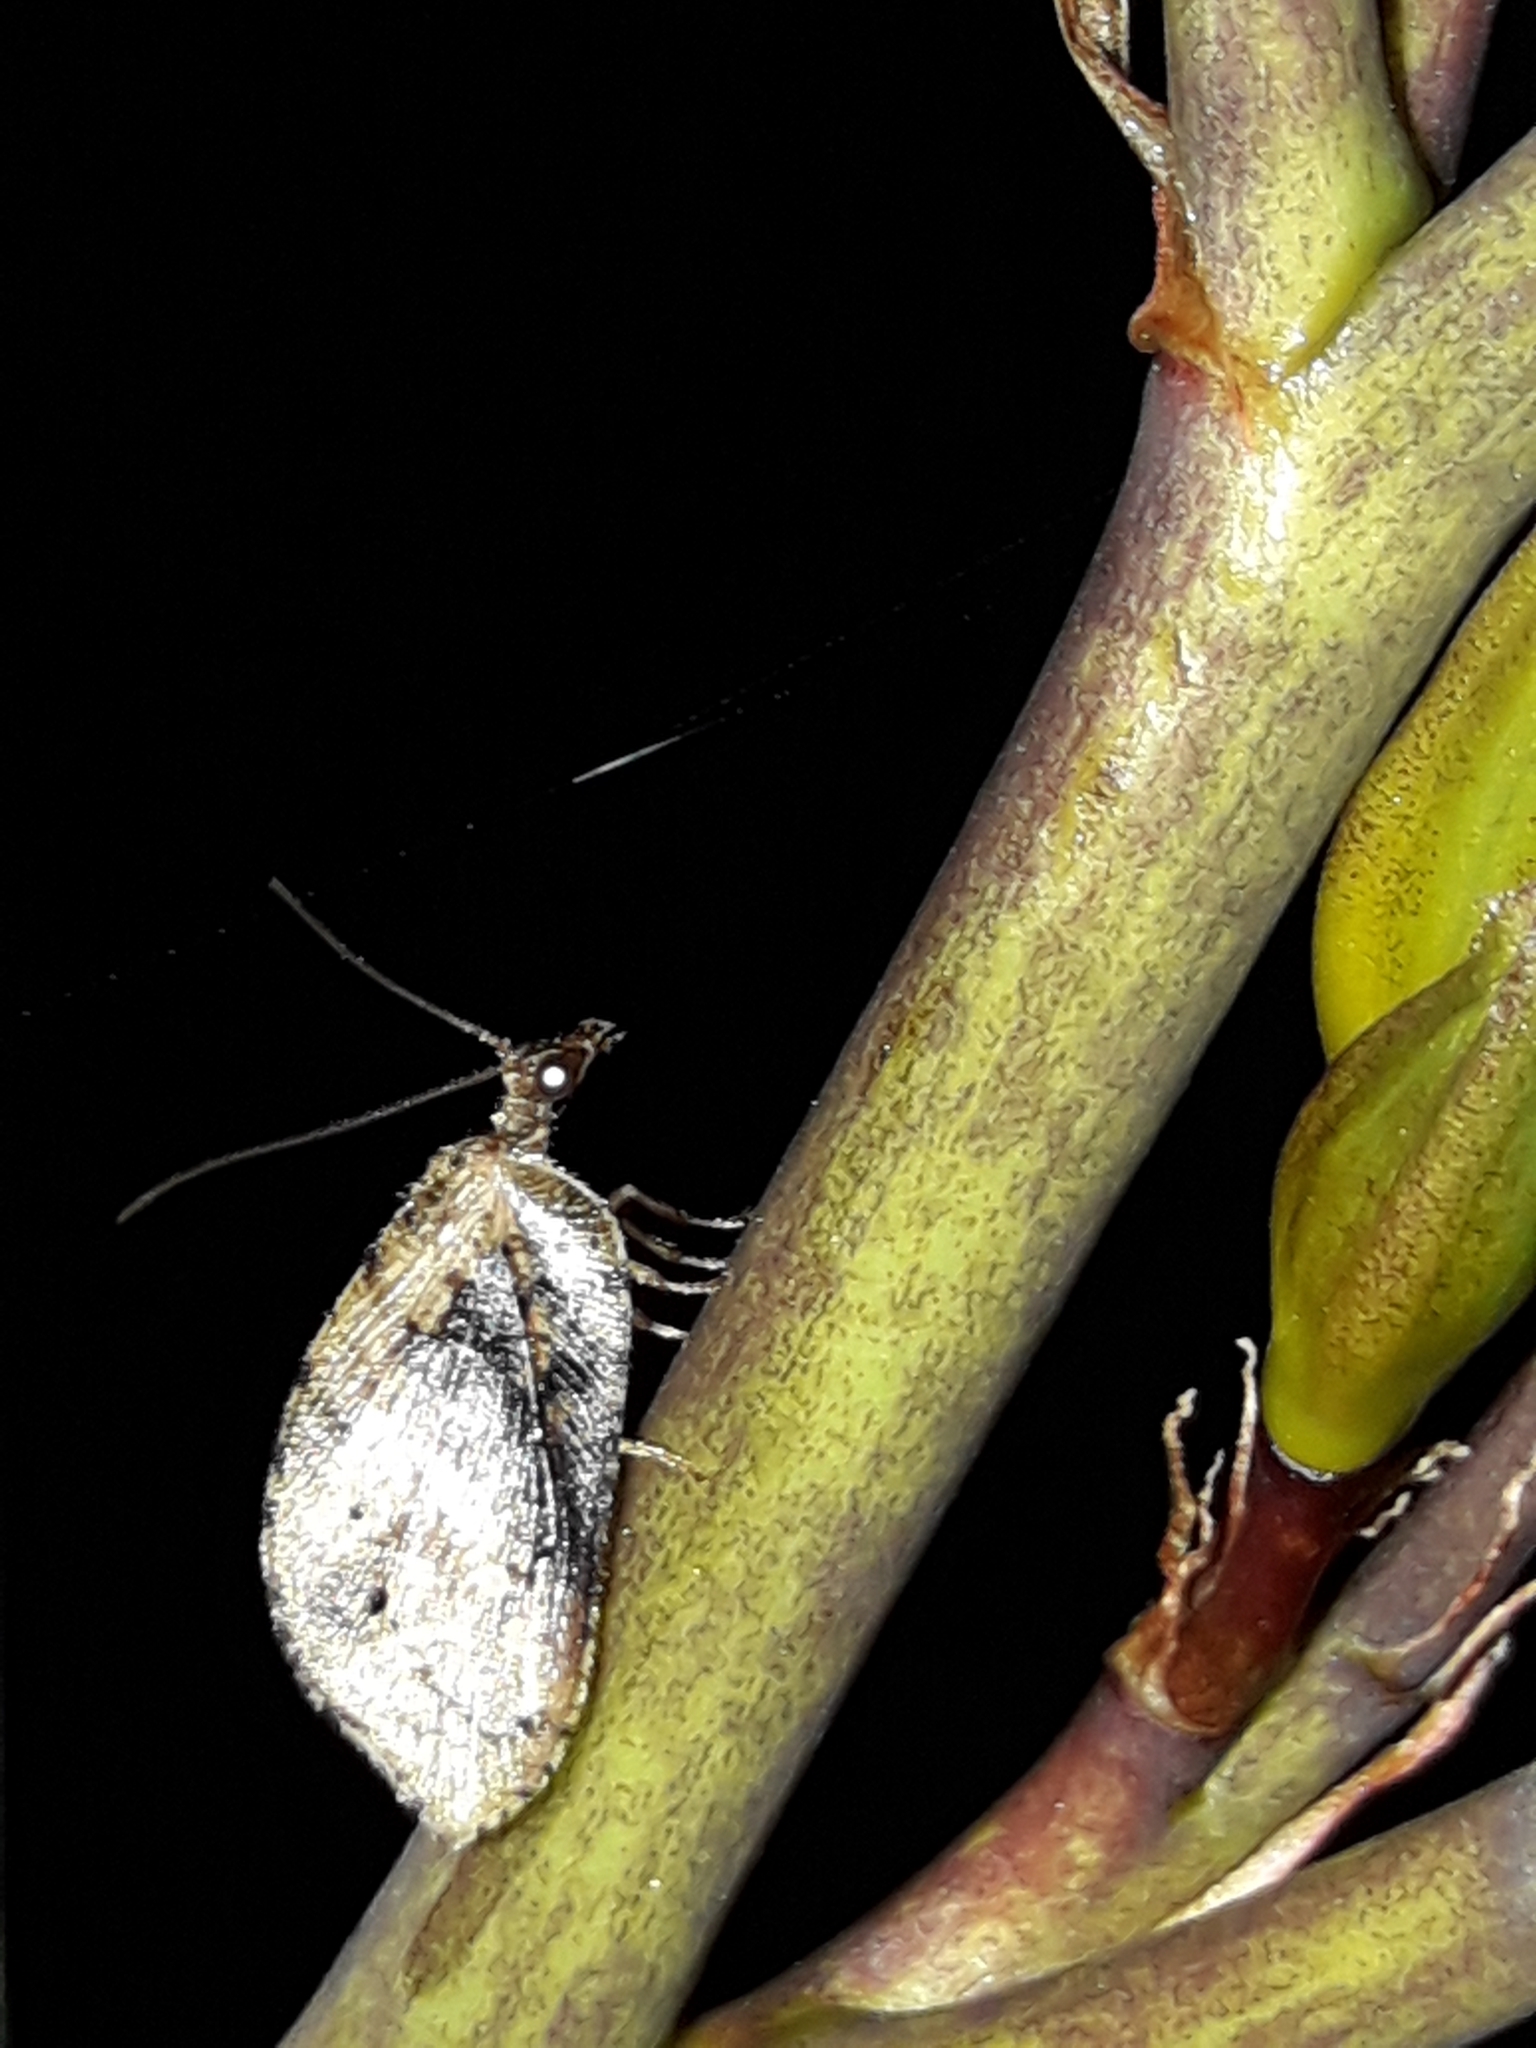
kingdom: Animalia
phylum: Arthropoda
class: Insecta
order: Neuroptera
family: Hemerobiidae
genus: Drepanacra
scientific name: Drepanacra binocula
